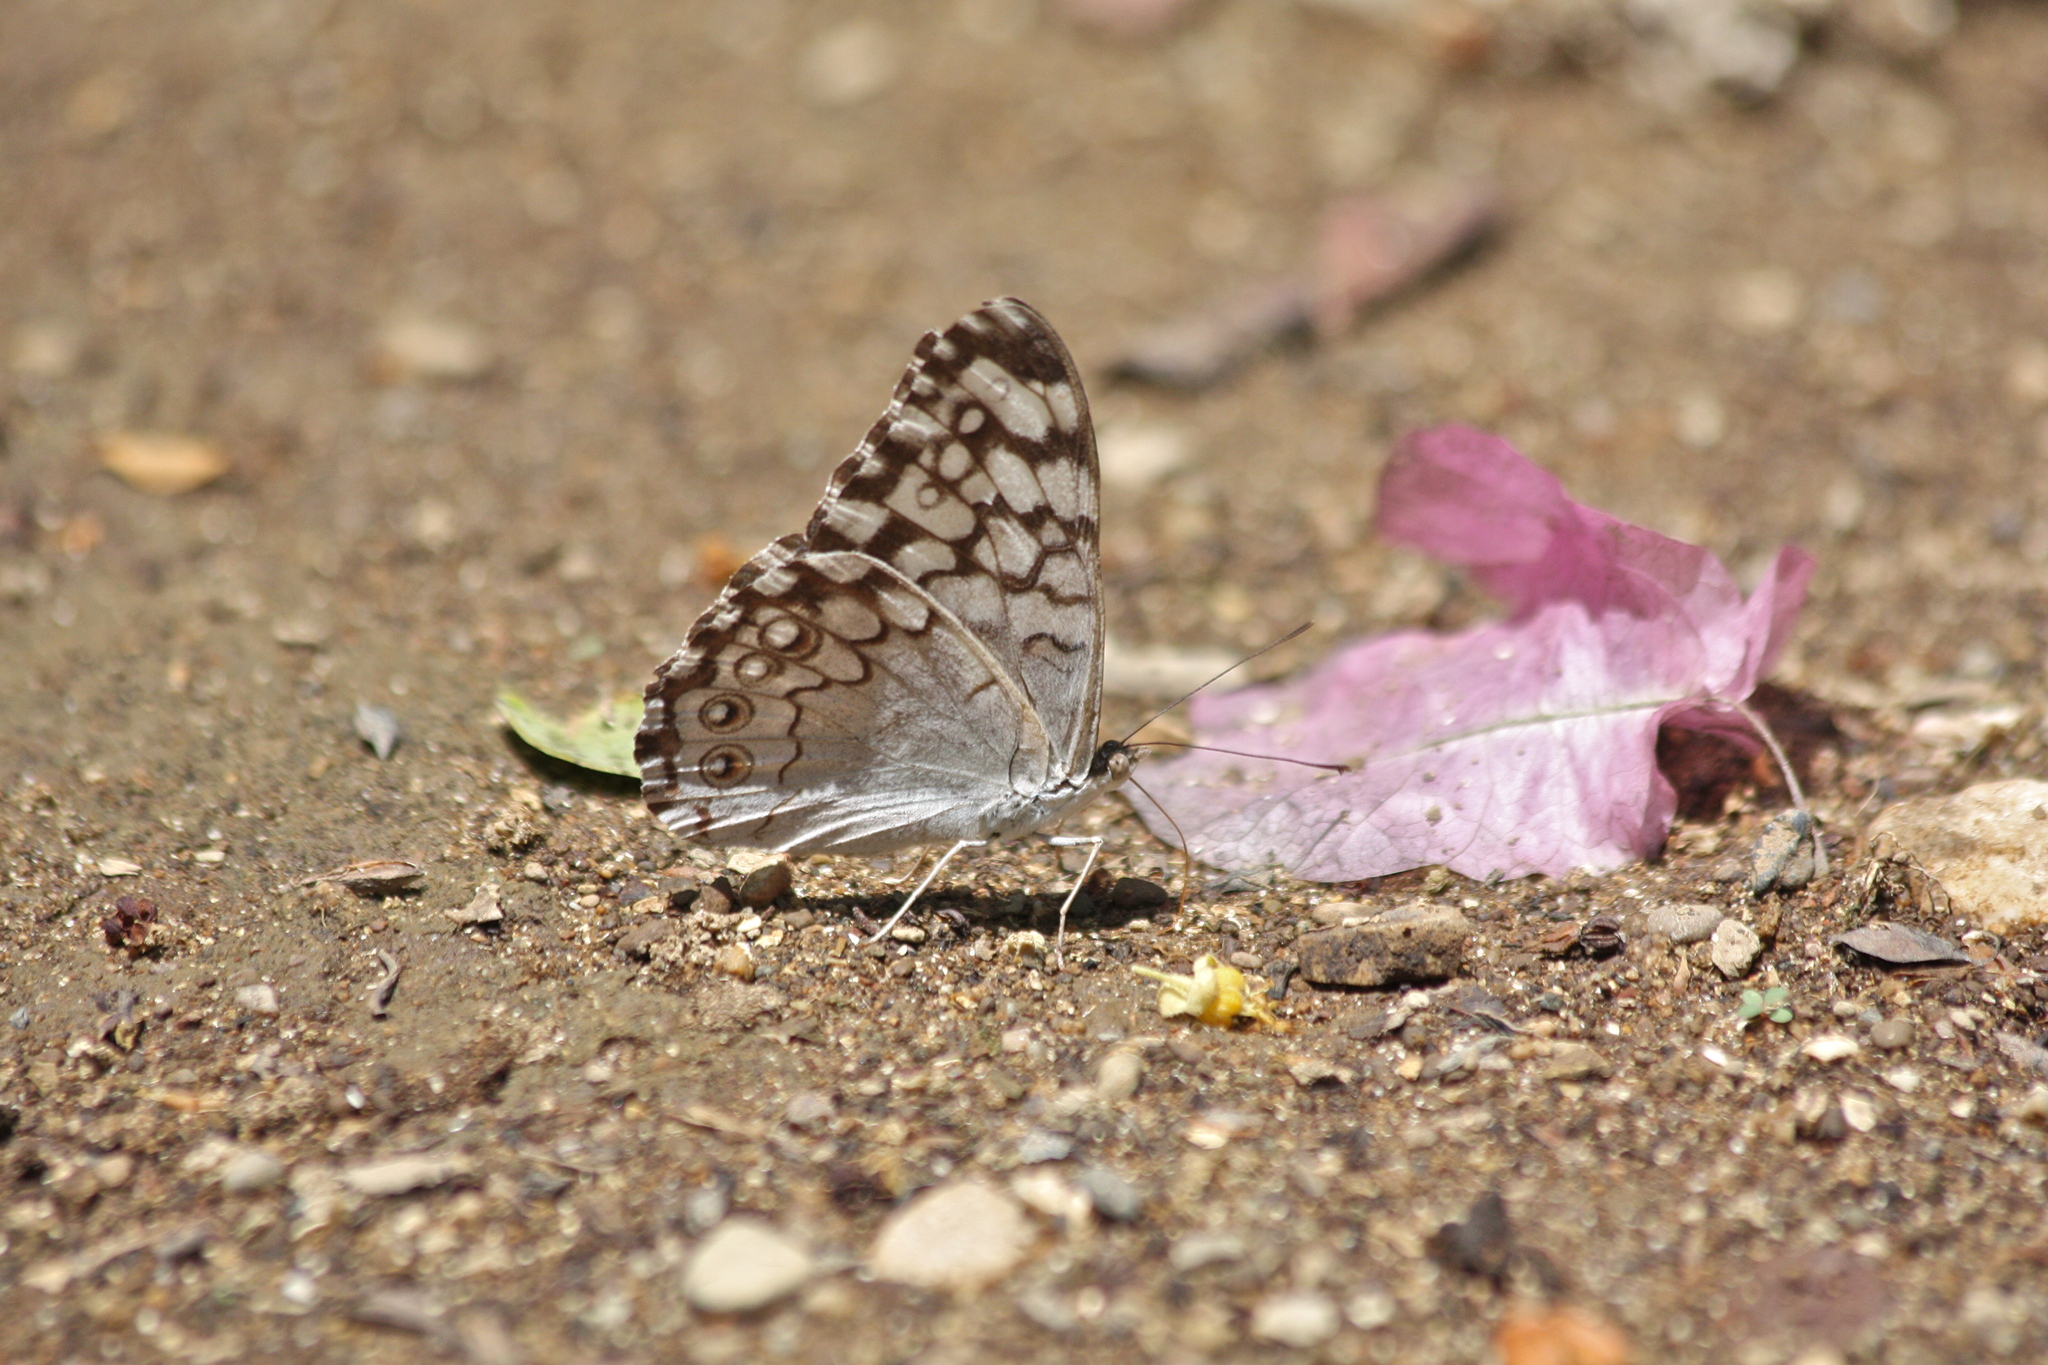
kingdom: Animalia
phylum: Arthropoda
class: Insecta
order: Lepidoptera
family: Nymphalidae
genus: Hamadryas
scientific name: Hamadryas februa
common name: Gray cracker
